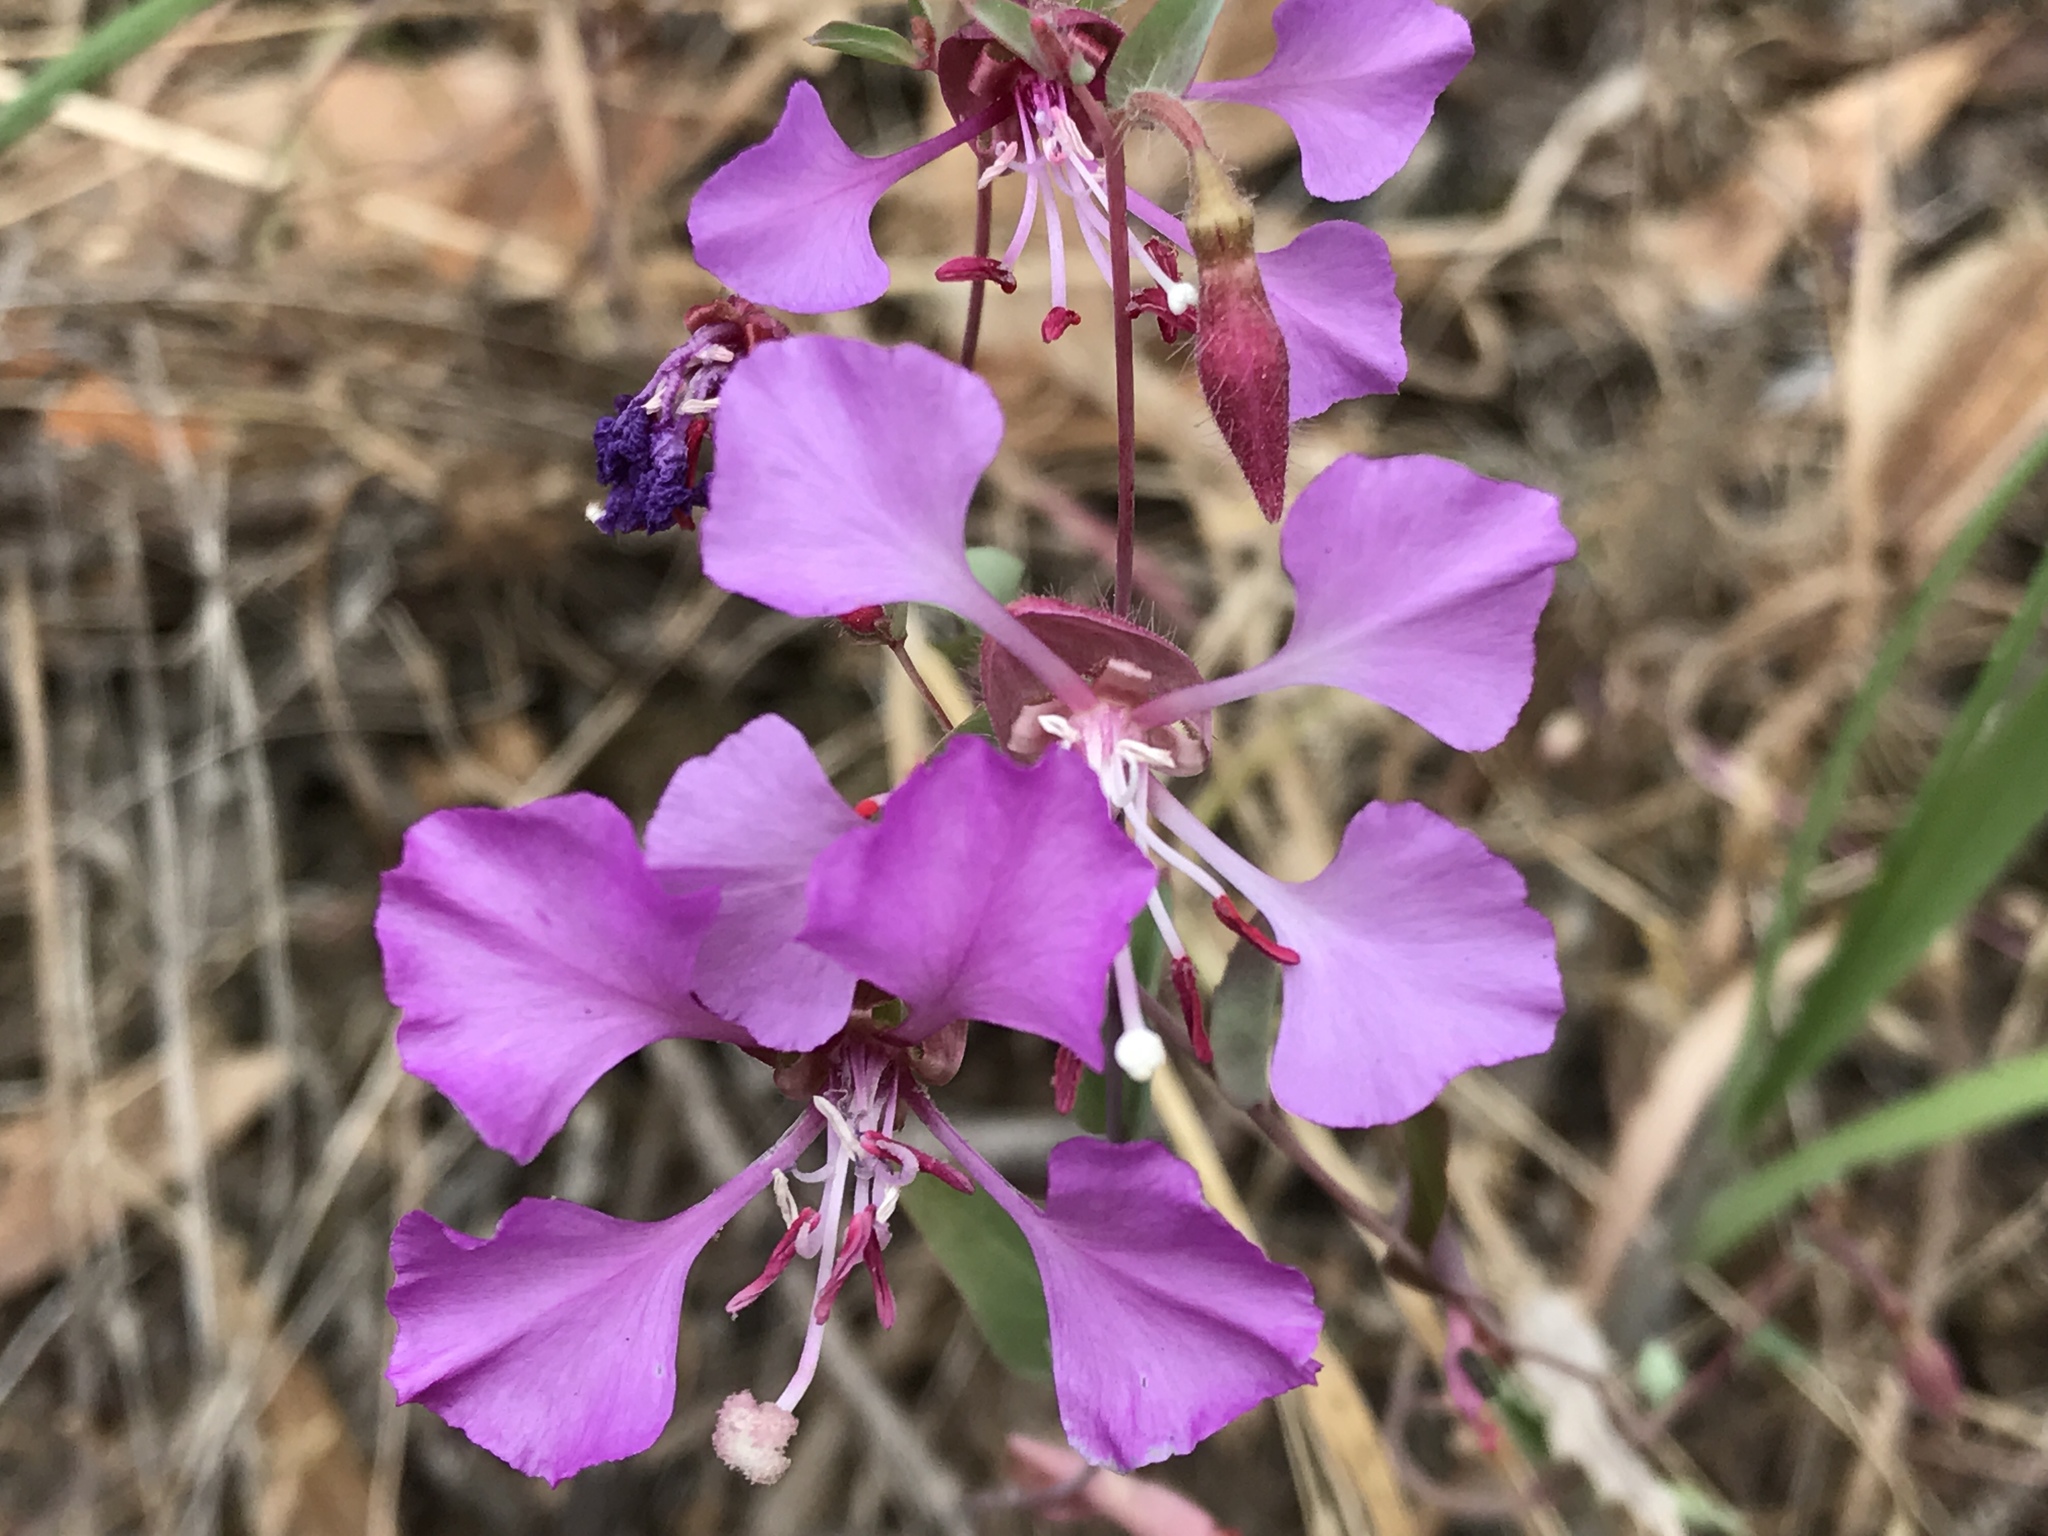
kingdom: Plantae
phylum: Tracheophyta
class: Magnoliopsida
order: Myrtales
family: Onagraceae
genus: Clarkia
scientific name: Clarkia unguiculata
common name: Clarkia
